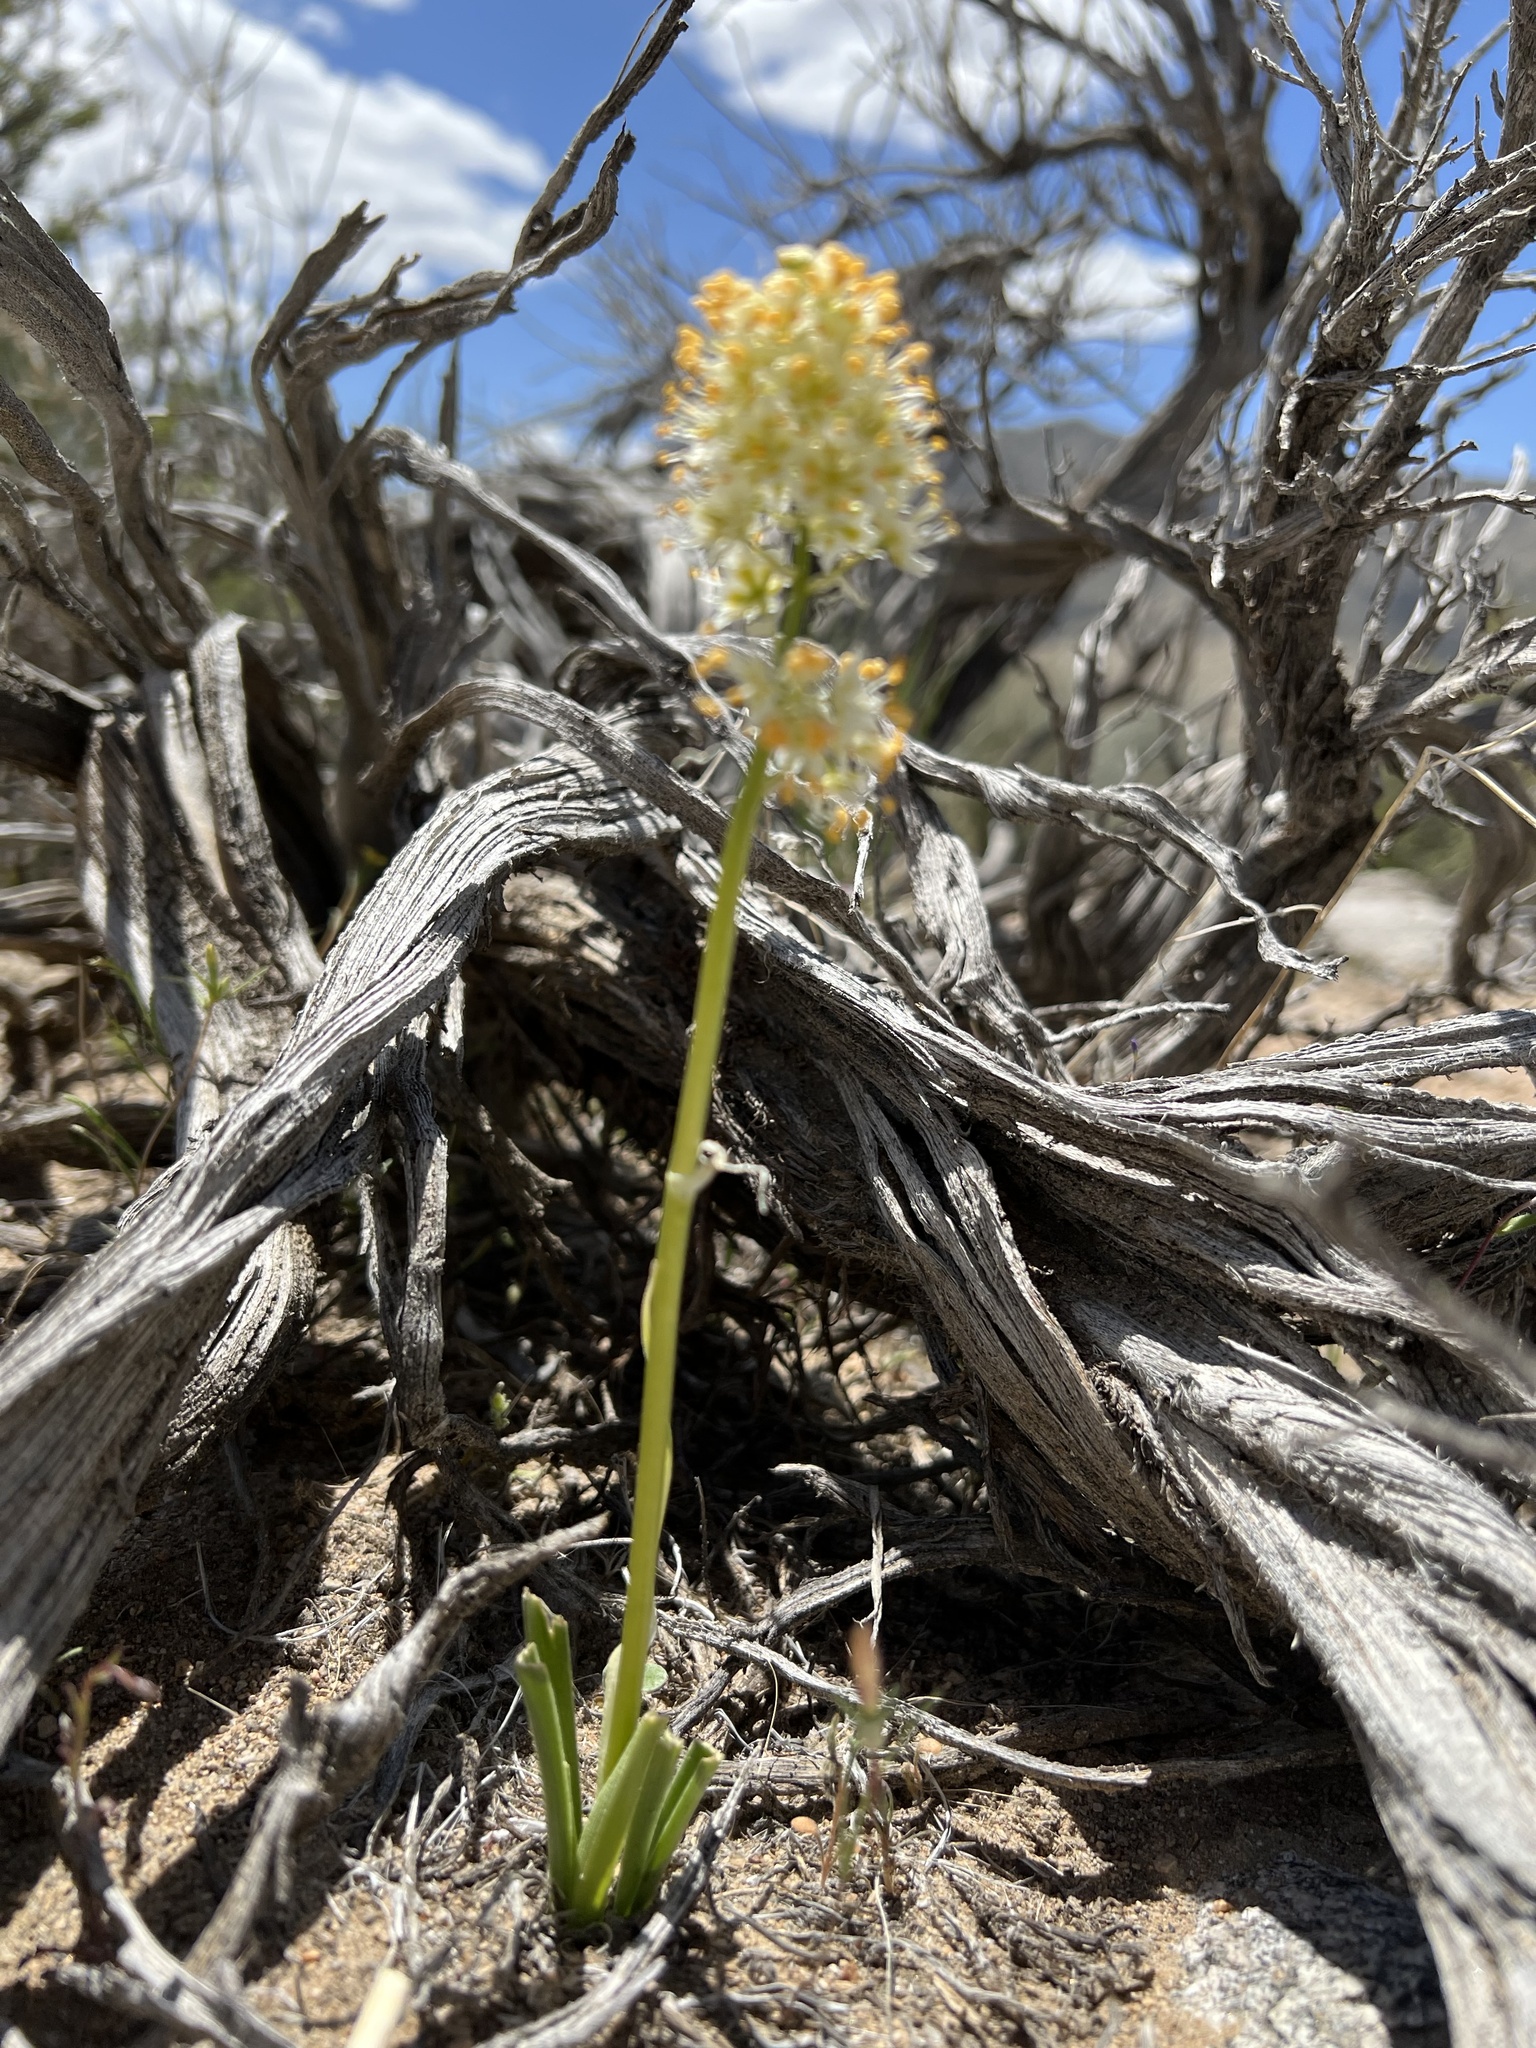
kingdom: Plantae
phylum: Tracheophyta
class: Liliopsida
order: Liliales
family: Melanthiaceae
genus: Toxicoscordion
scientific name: Toxicoscordion paniculatum
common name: Foothill death camas
